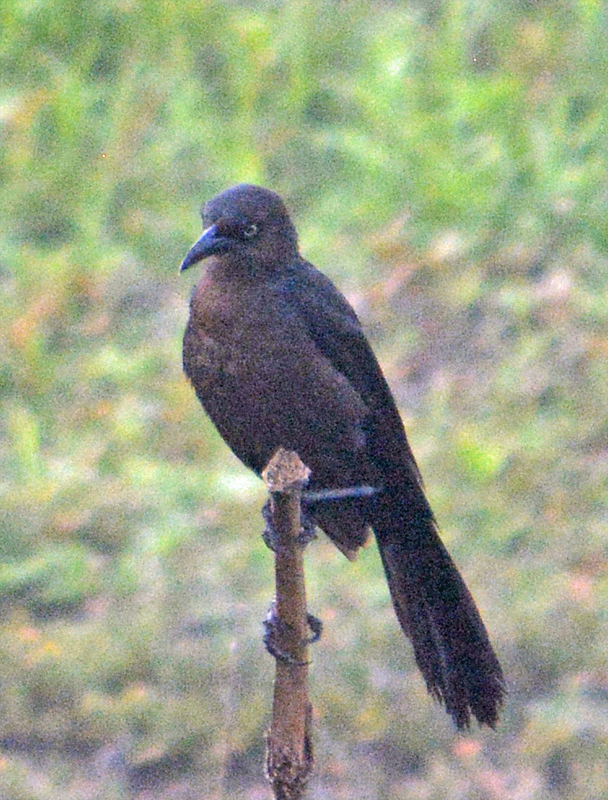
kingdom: Animalia
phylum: Chordata
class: Aves
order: Passeriformes
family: Icteridae
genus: Quiscalus
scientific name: Quiscalus mexicanus
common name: Great-tailed grackle
